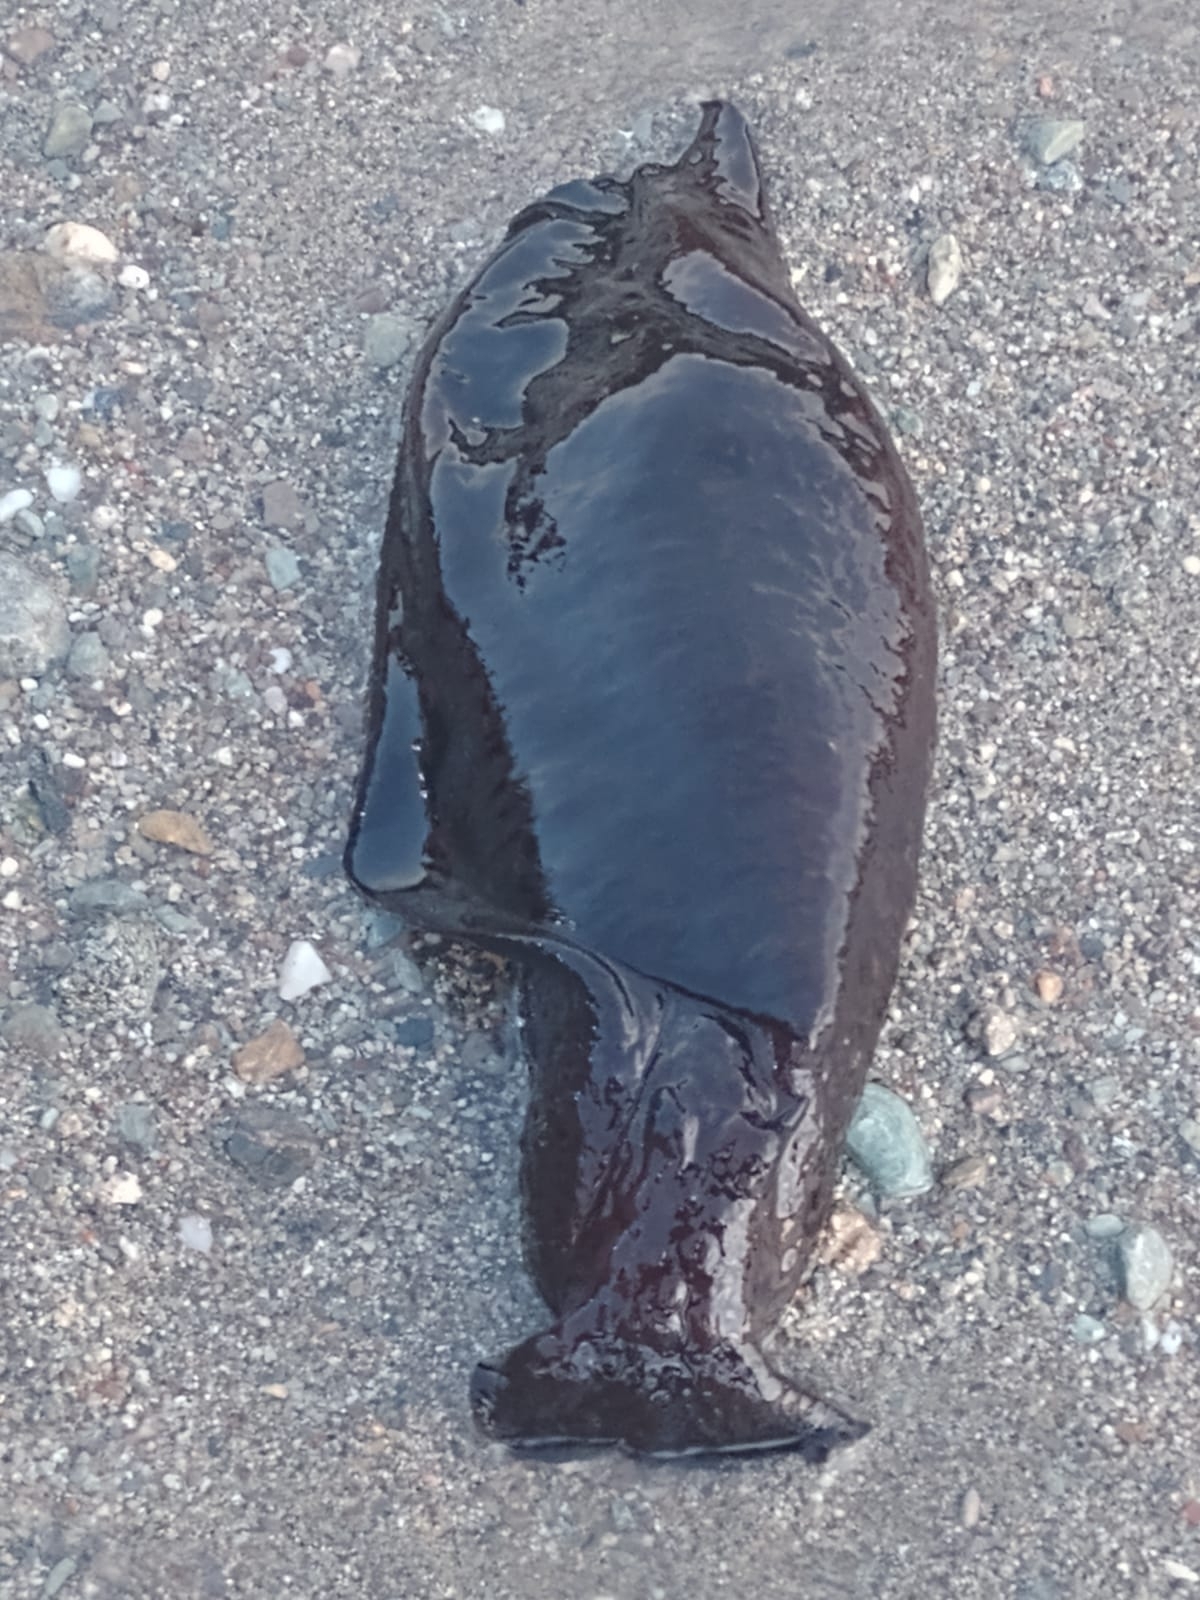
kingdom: Animalia
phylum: Mollusca
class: Gastropoda
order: Aplysiida
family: Aplysiidae
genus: Aplysia
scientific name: Aplysia morio
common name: Atlantic black seahare
